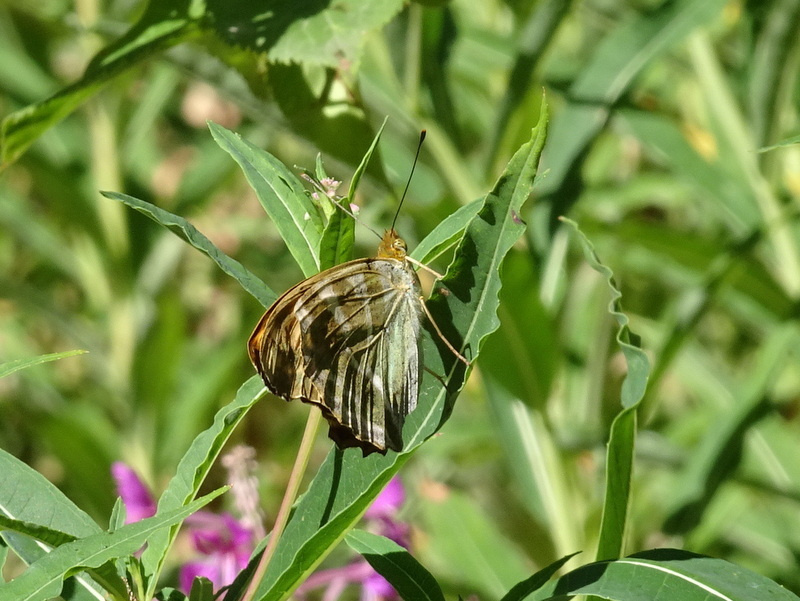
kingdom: Animalia
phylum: Arthropoda
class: Insecta
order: Lepidoptera
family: Nymphalidae
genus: Argynnis
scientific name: Argynnis paphia
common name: Silver-washed fritillary
